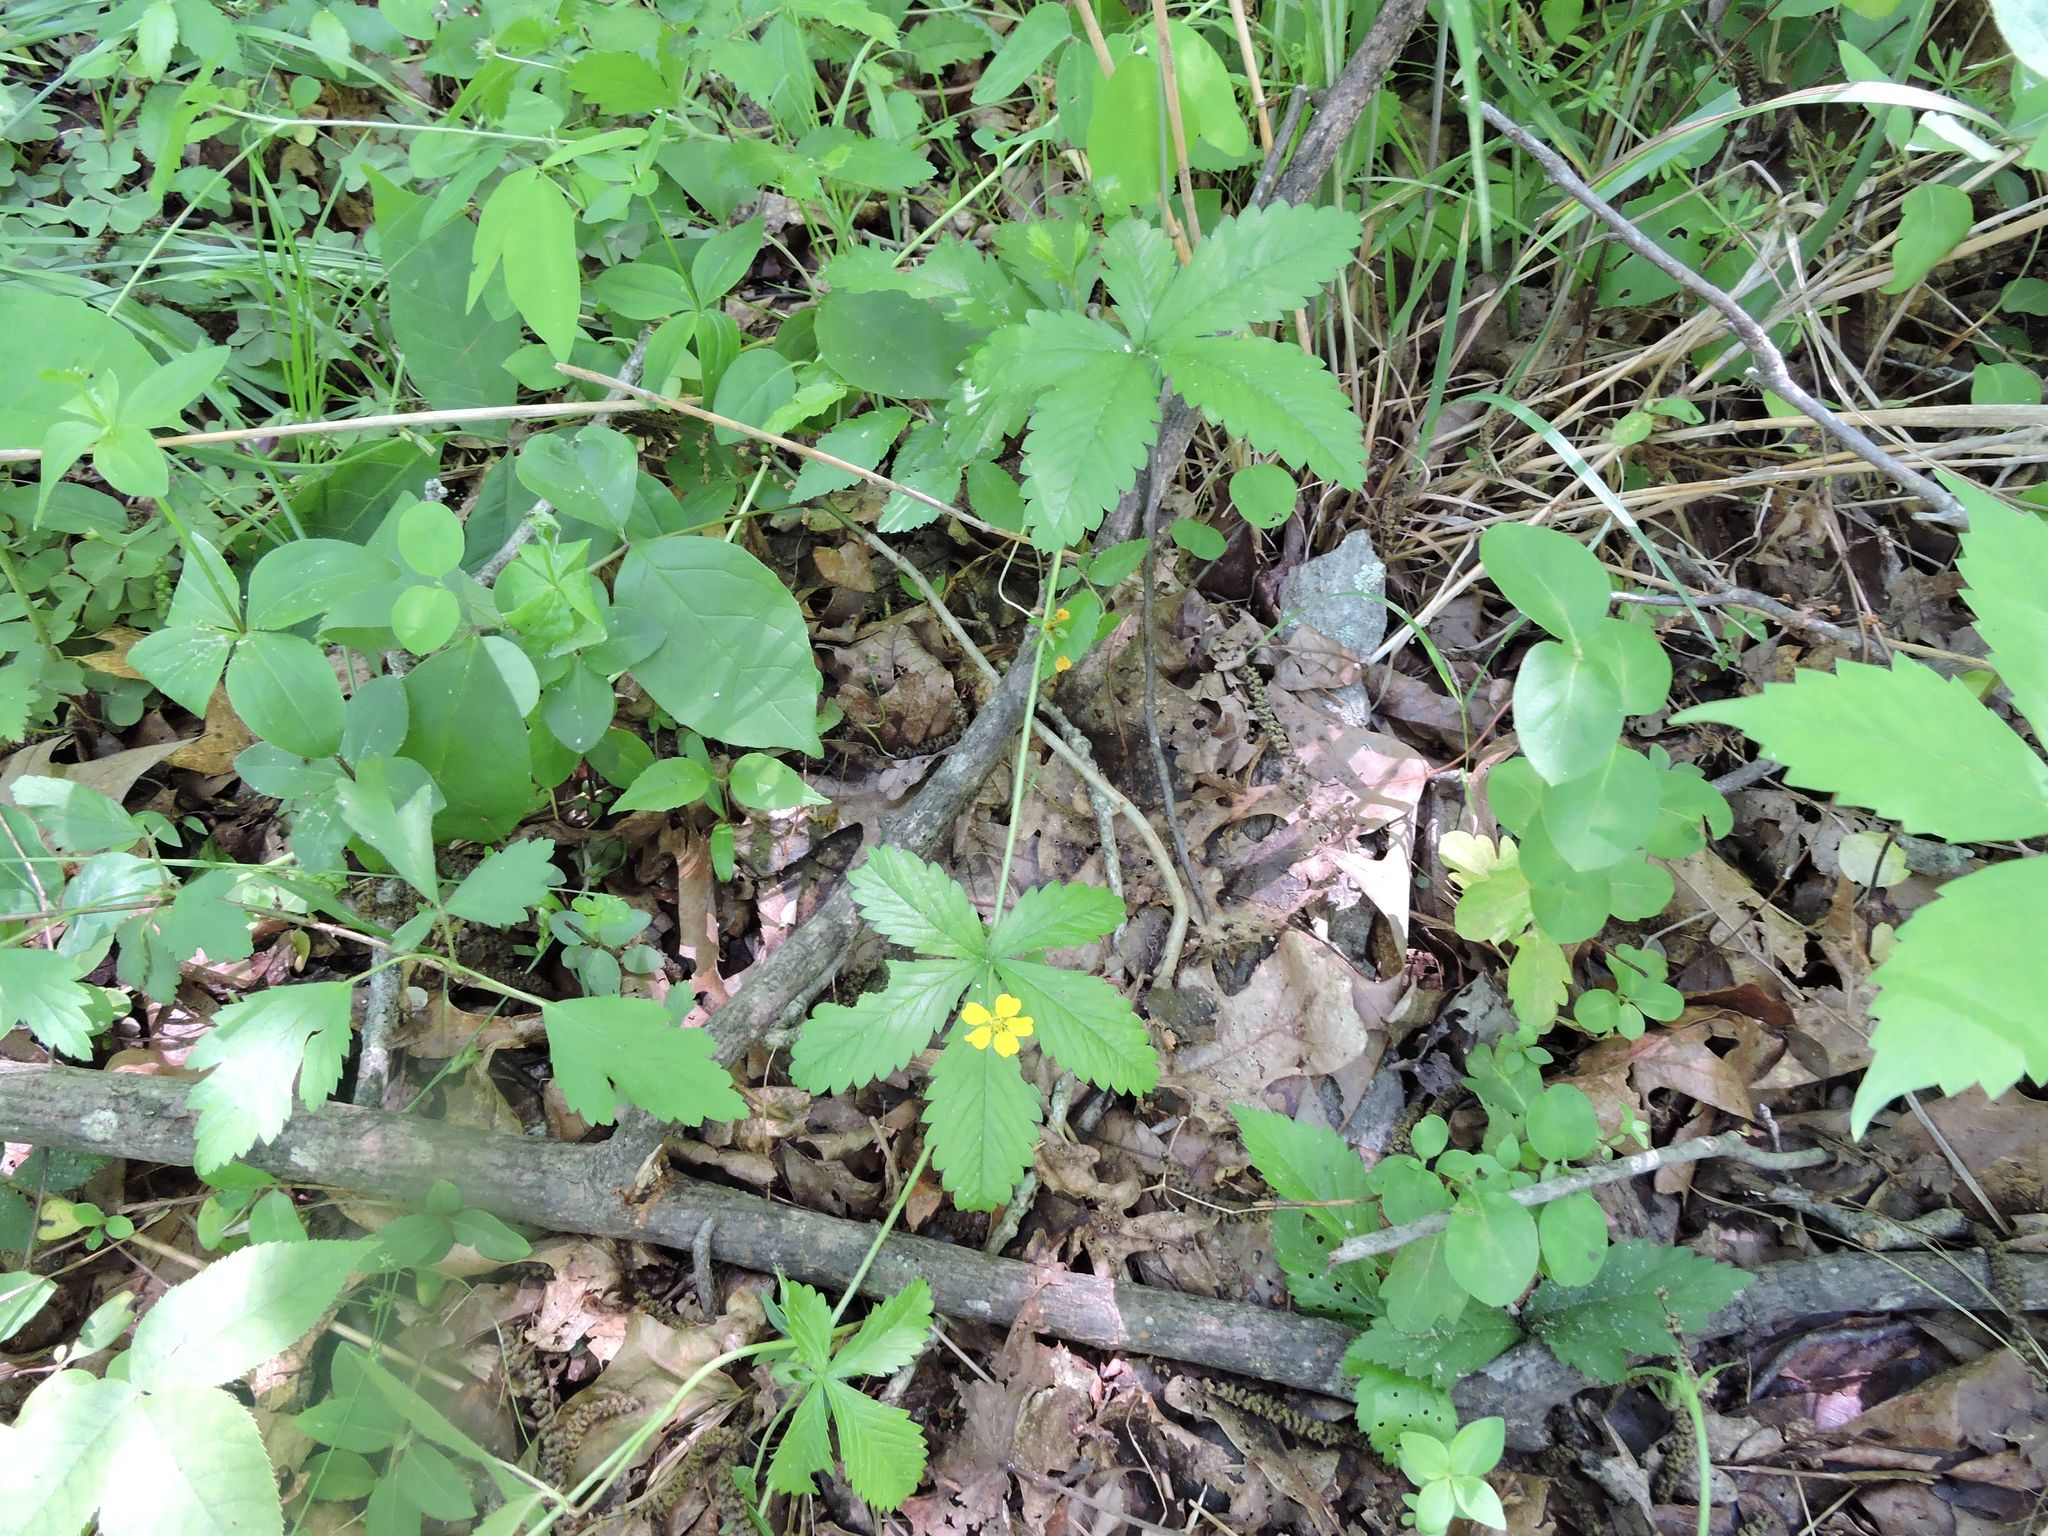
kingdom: Plantae
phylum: Tracheophyta
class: Magnoliopsida
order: Rosales
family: Rosaceae
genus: Potentilla
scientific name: Potentilla simplex
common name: Old field cinquefoil
